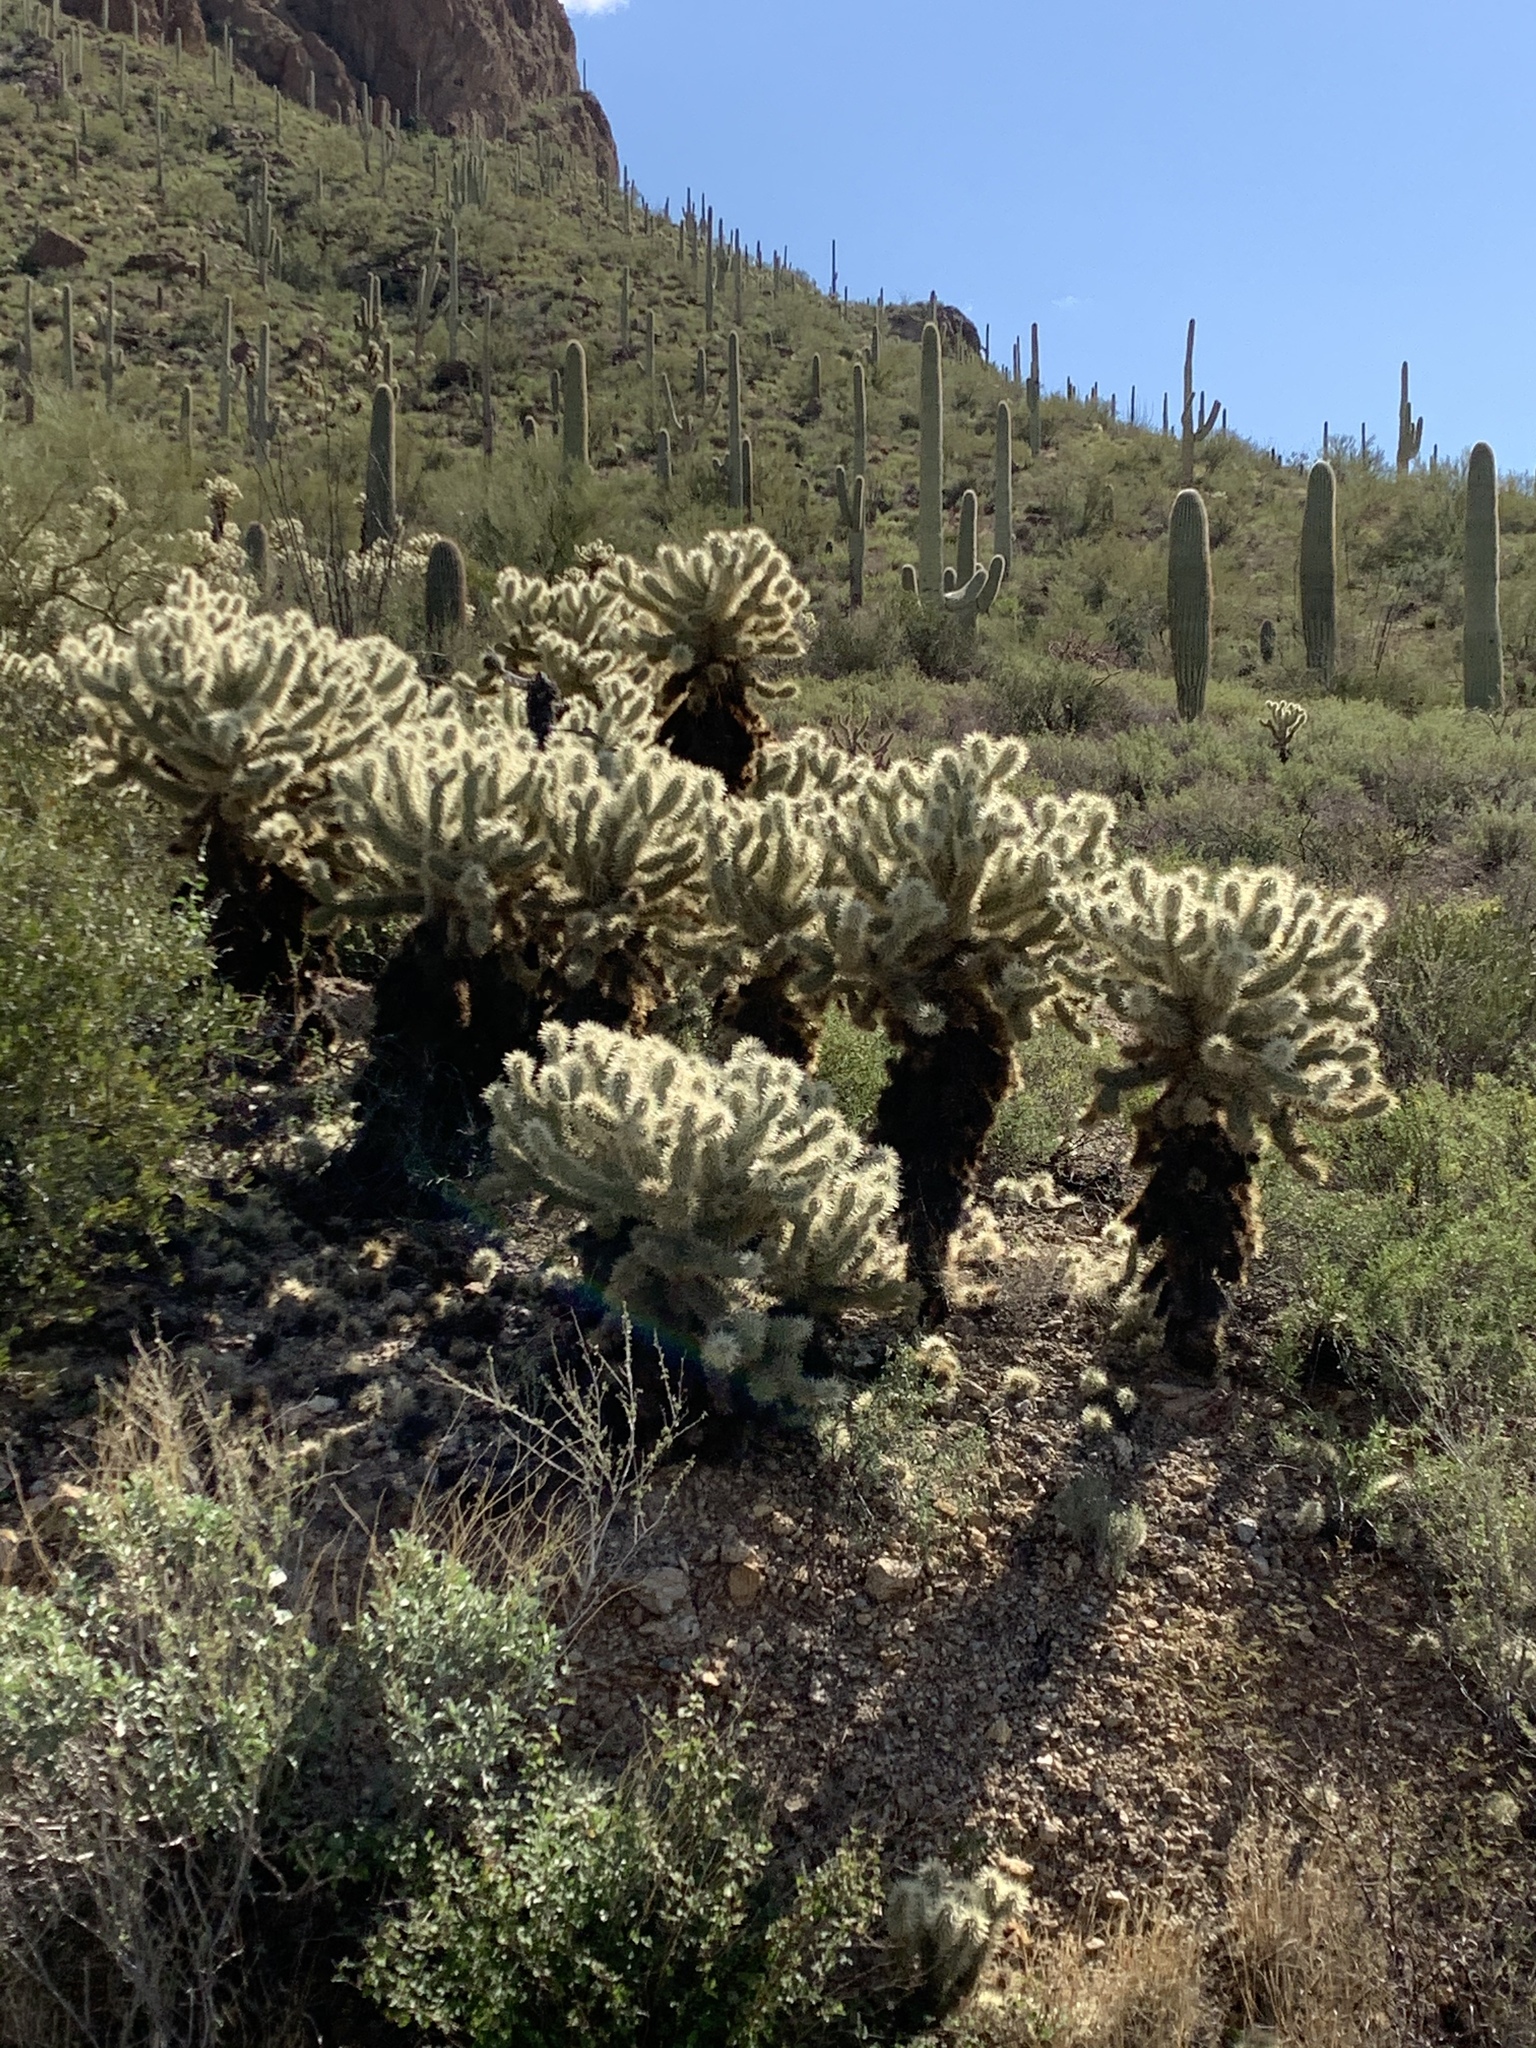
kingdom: Plantae
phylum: Tracheophyta
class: Magnoliopsida
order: Caryophyllales
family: Cactaceae
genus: Cylindropuntia
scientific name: Cylindropuntia fosbergii
